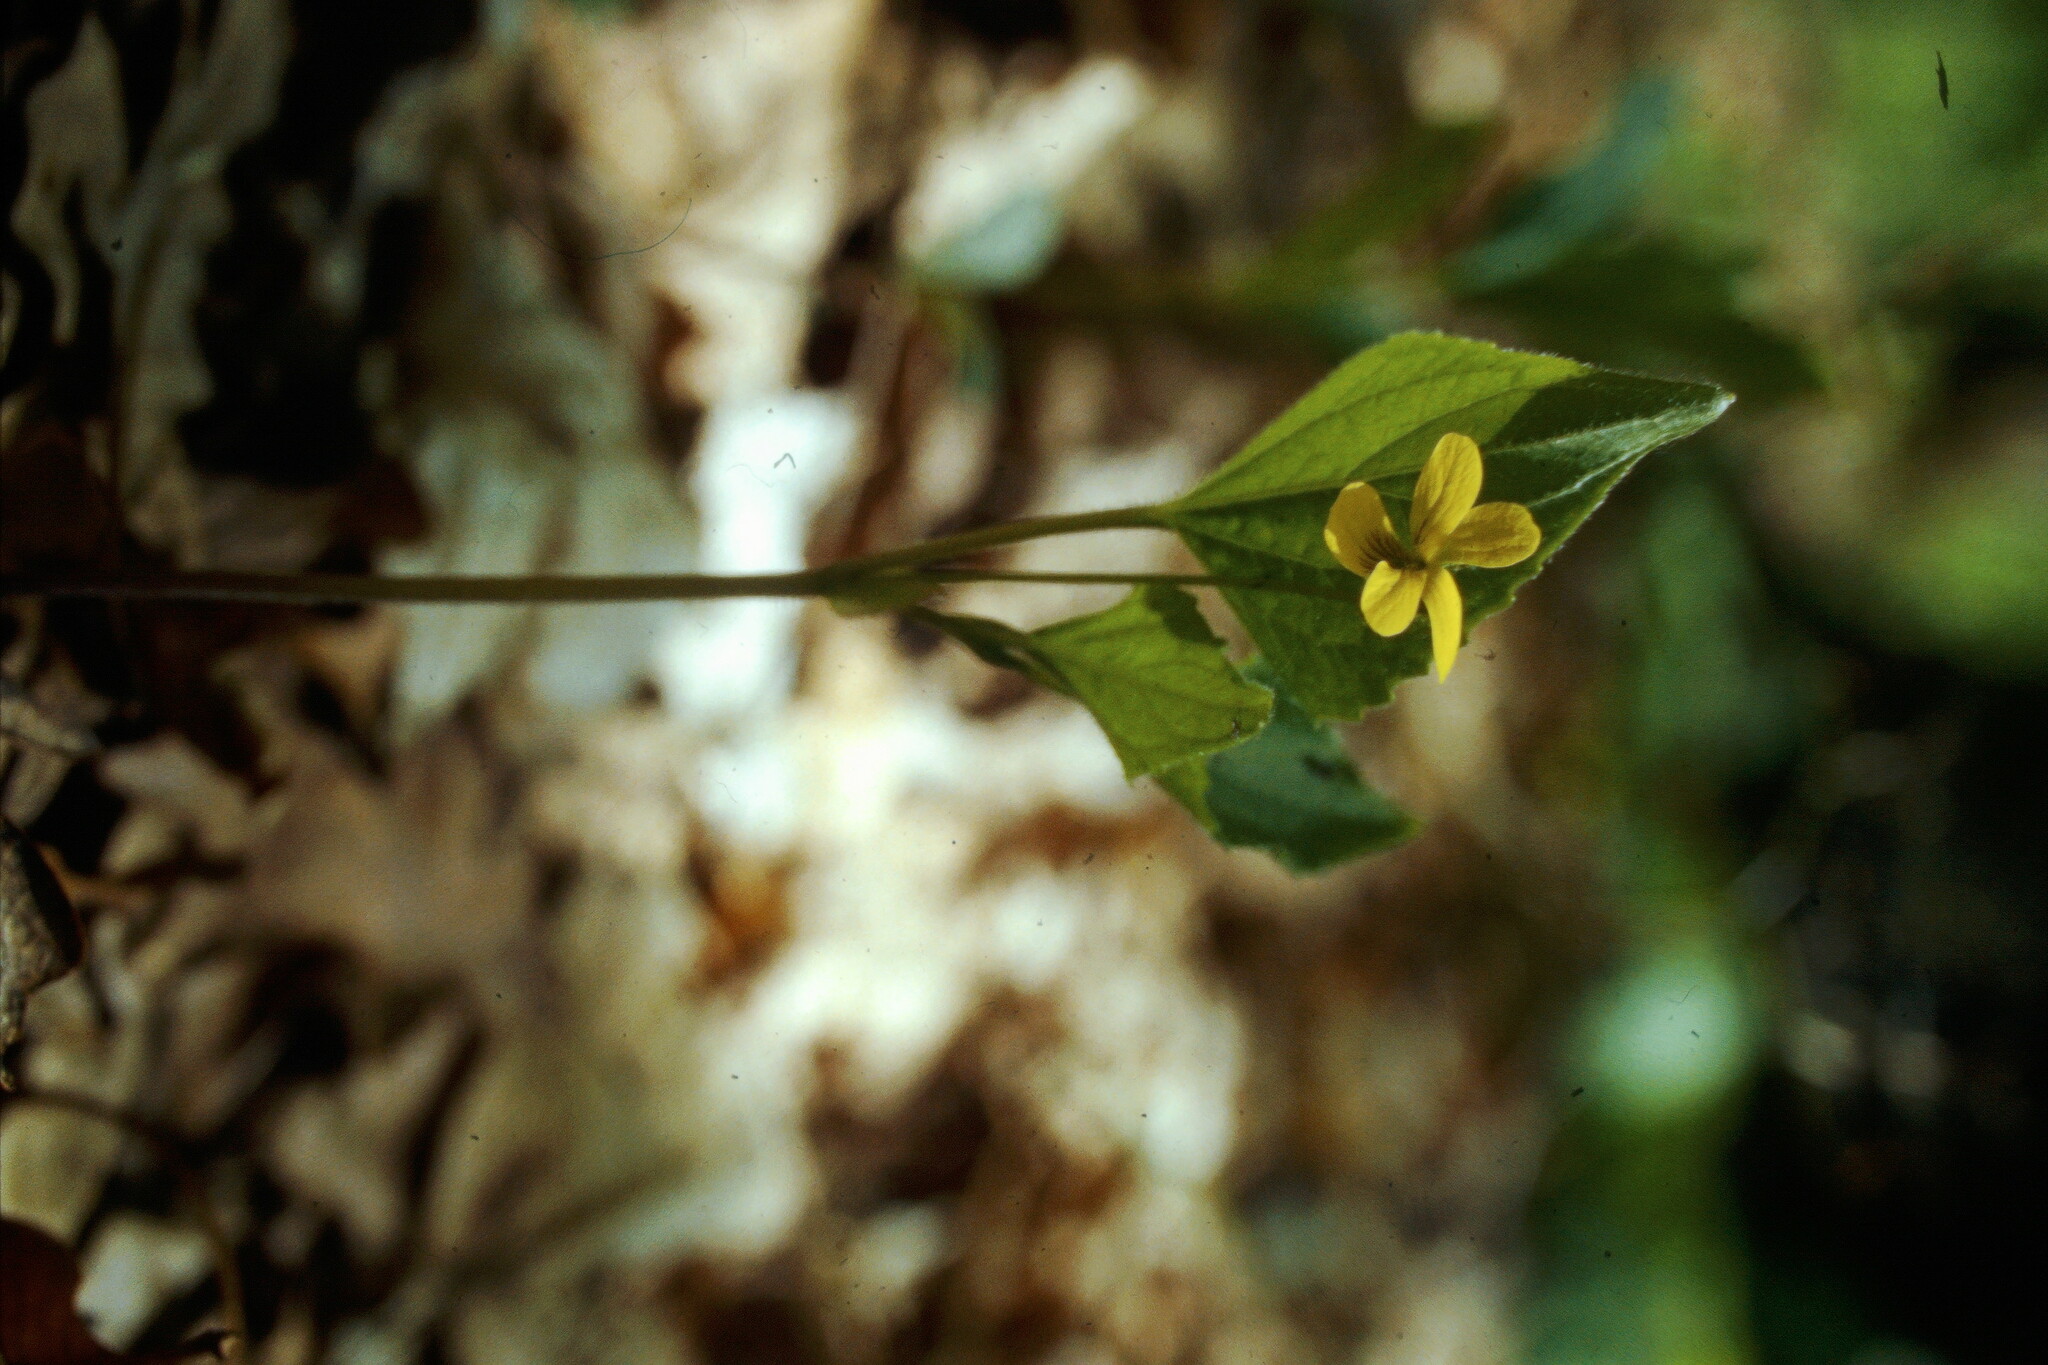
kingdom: Plantae
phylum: Tracheophyta
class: Magnoliopsida
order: Malpighiales
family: Violaceae
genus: Viola
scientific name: Viola glaberrima
